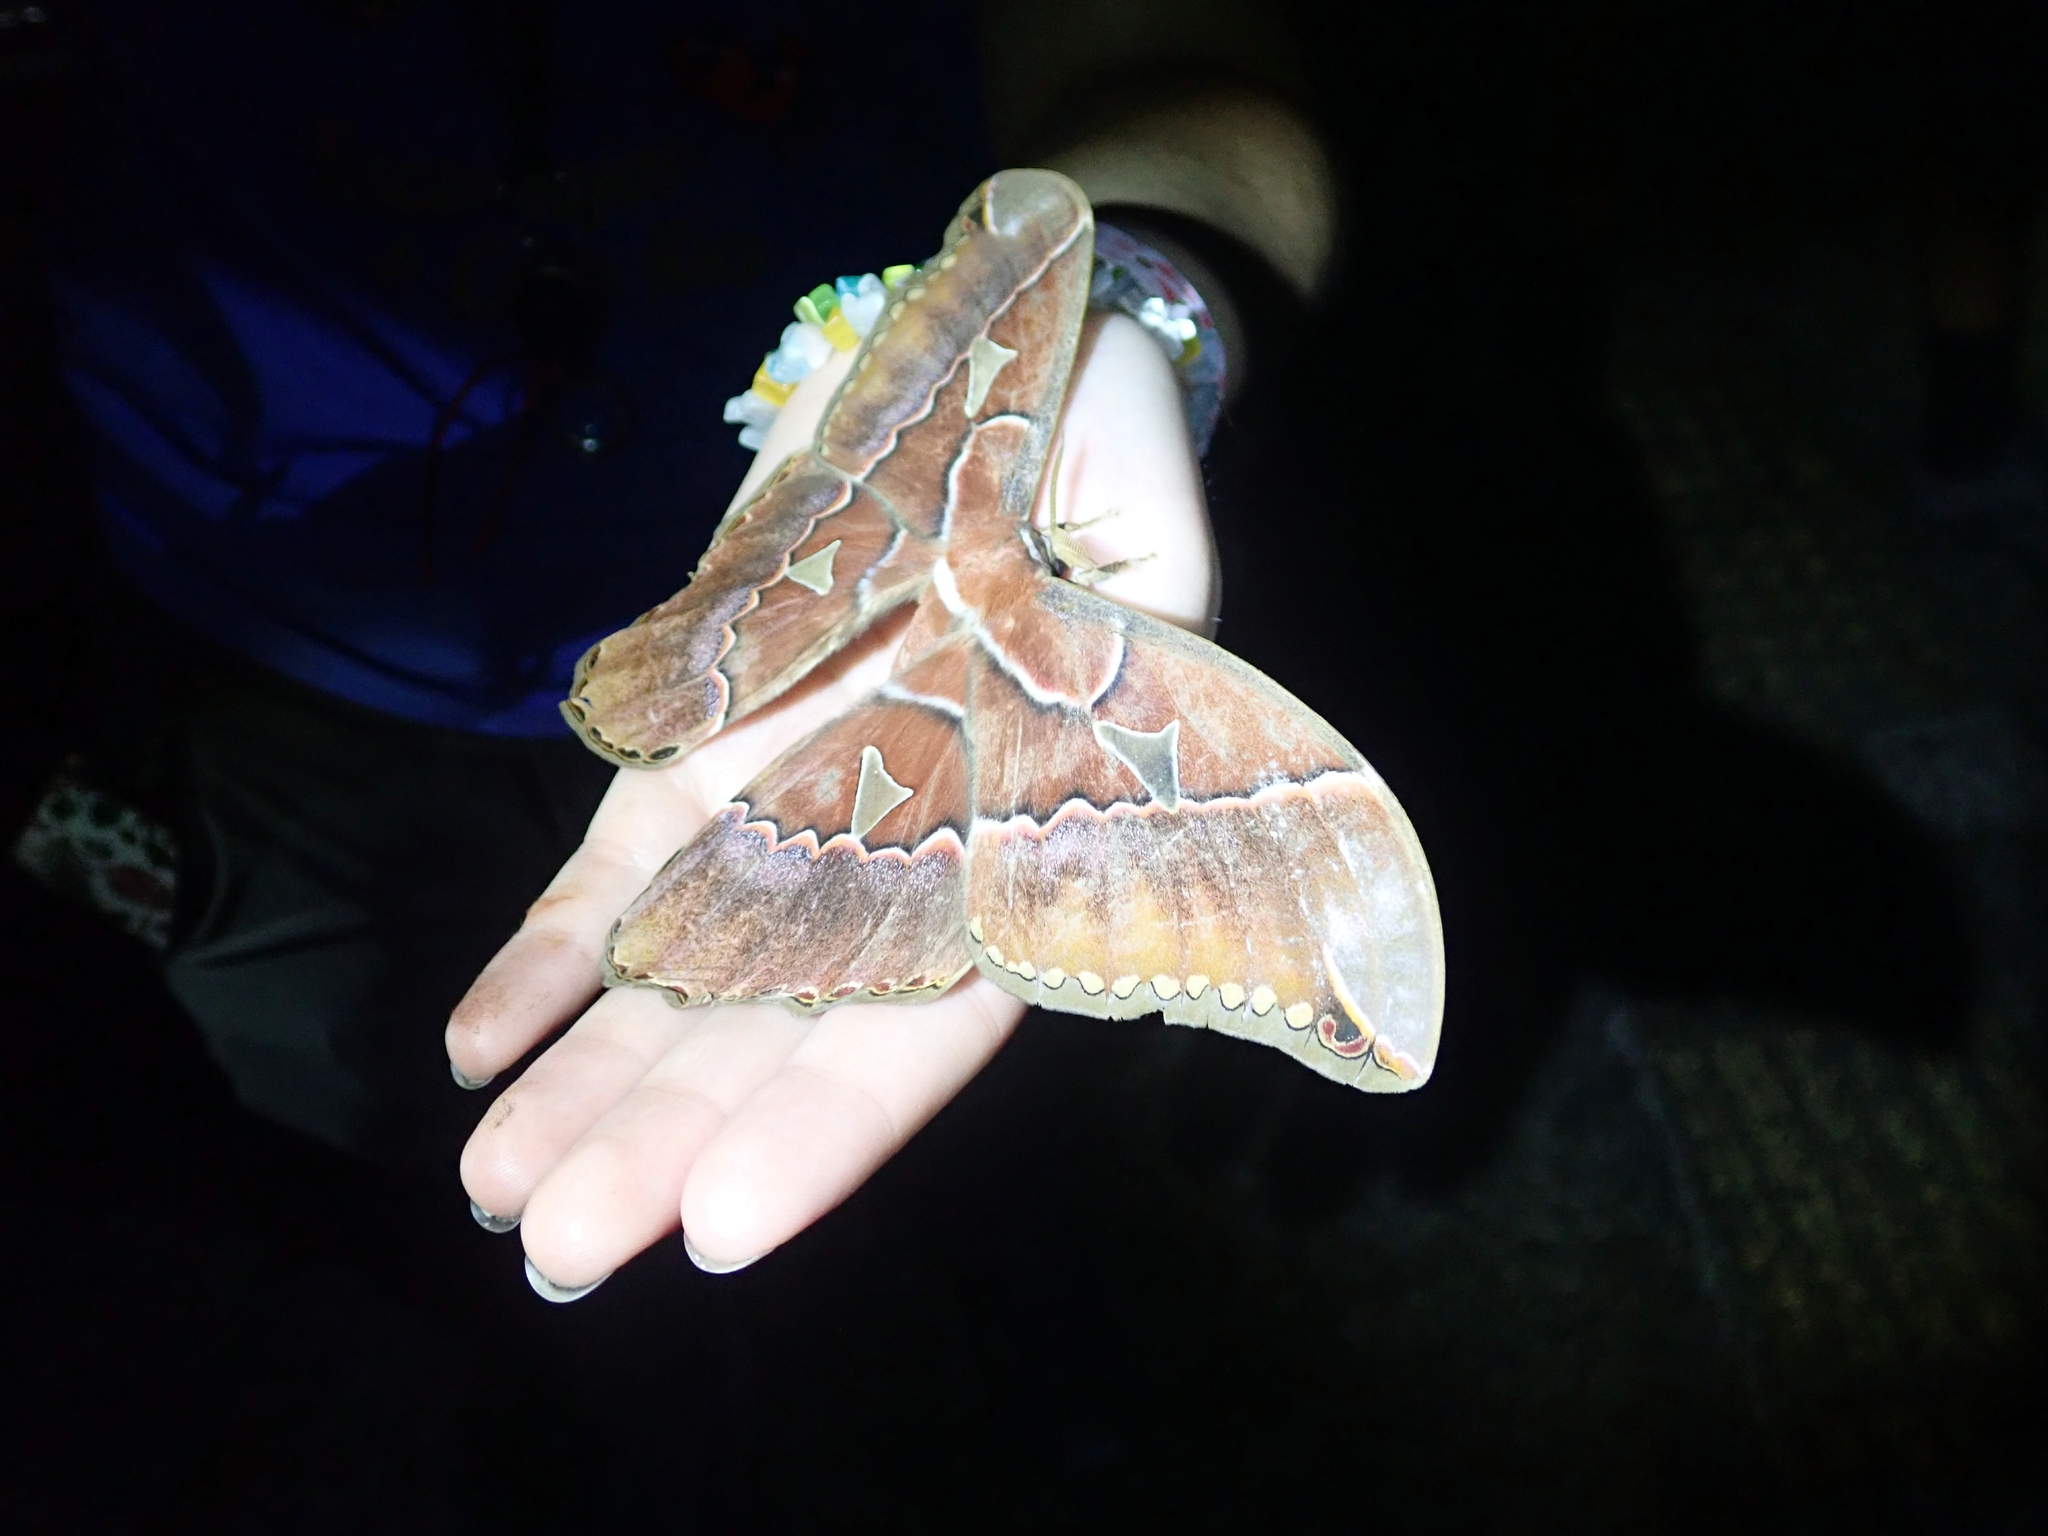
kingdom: Animalia
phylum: Arthropoda
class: Insecta
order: Lepidoptera
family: Saturniidae
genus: Rothschildia
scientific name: Rothschildia orizaba
